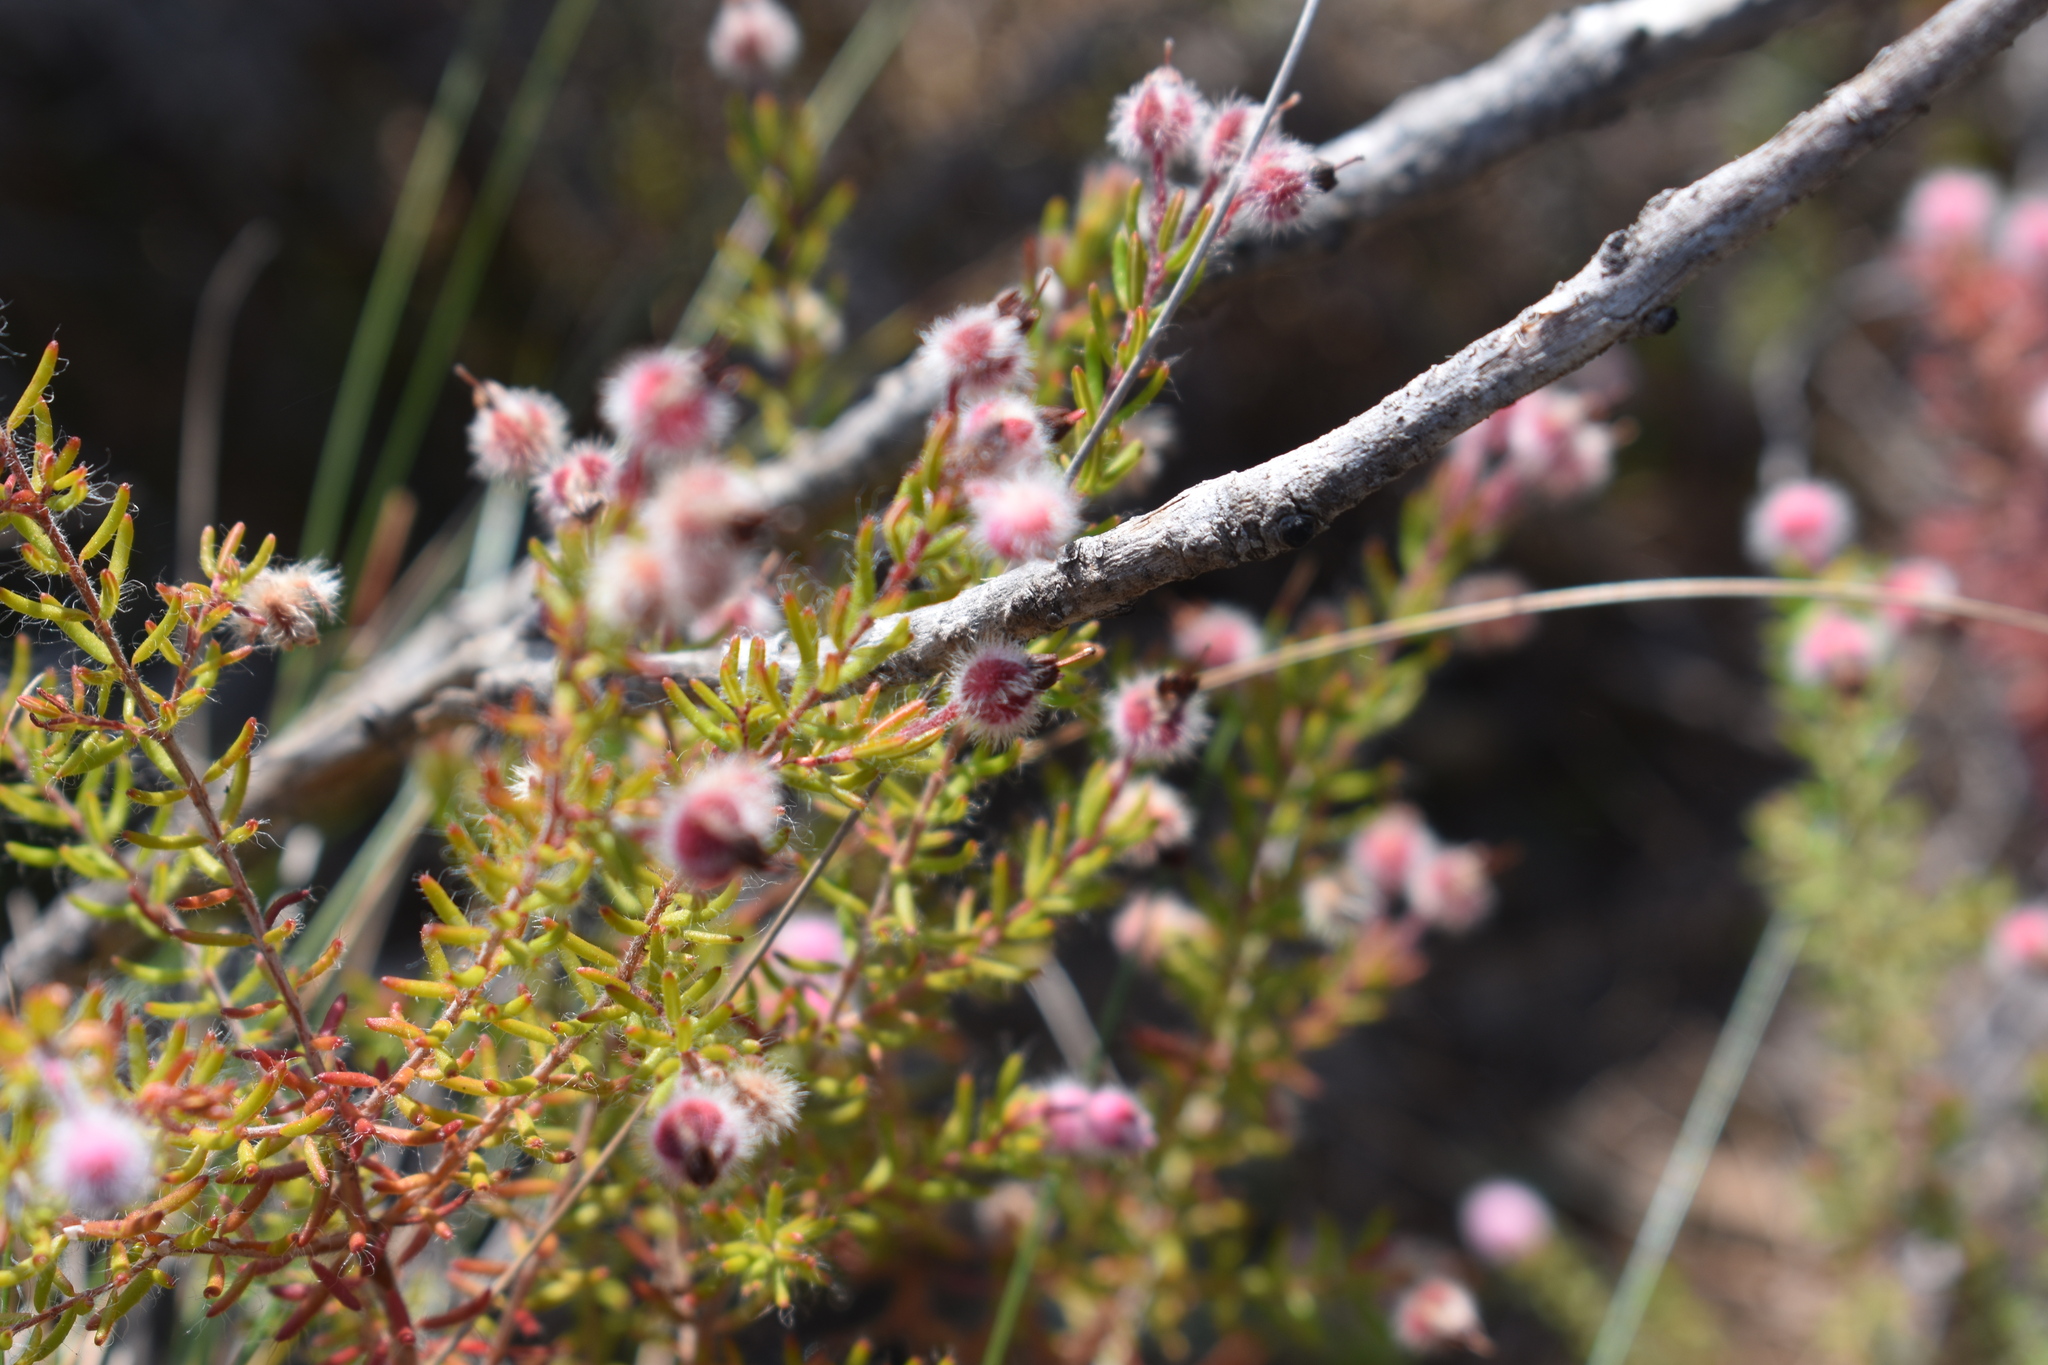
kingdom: Plantae
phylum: Tracheophyta
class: Magnoliopsida
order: Ericales
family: Ericaceae
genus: Erica
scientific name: Erica bruniades
